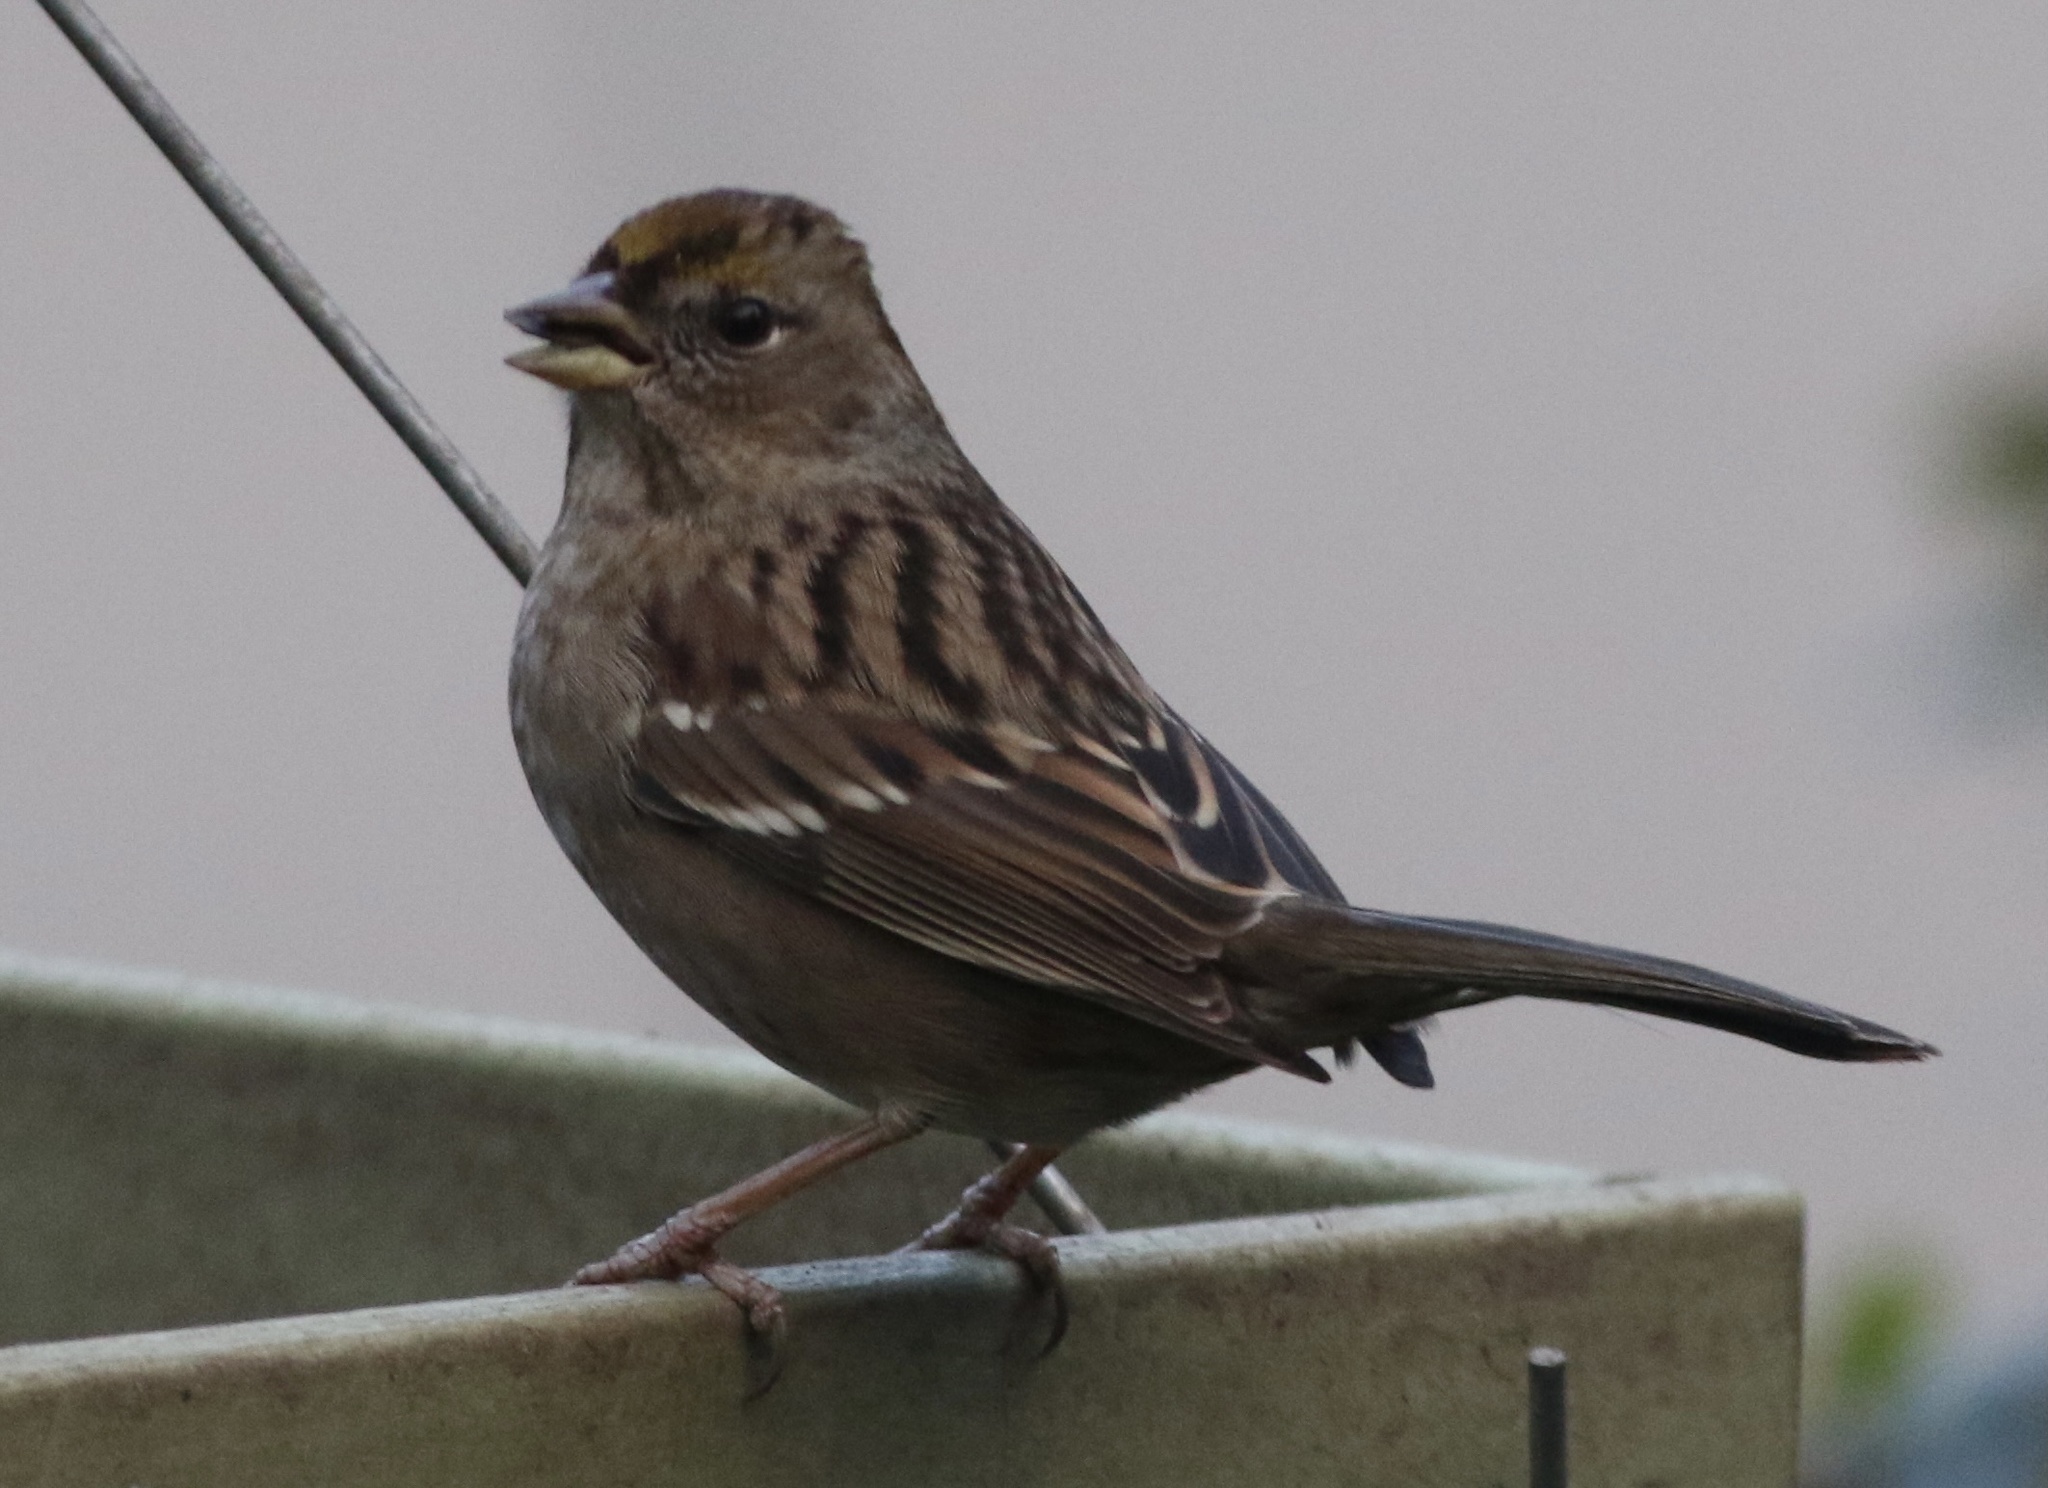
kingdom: Animalia
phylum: Chordata
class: Aves
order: Passeriformes
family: Passerellidae
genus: Zonotrichia
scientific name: Zonotrichia atricapilla
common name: Golden-crowned sparrow
